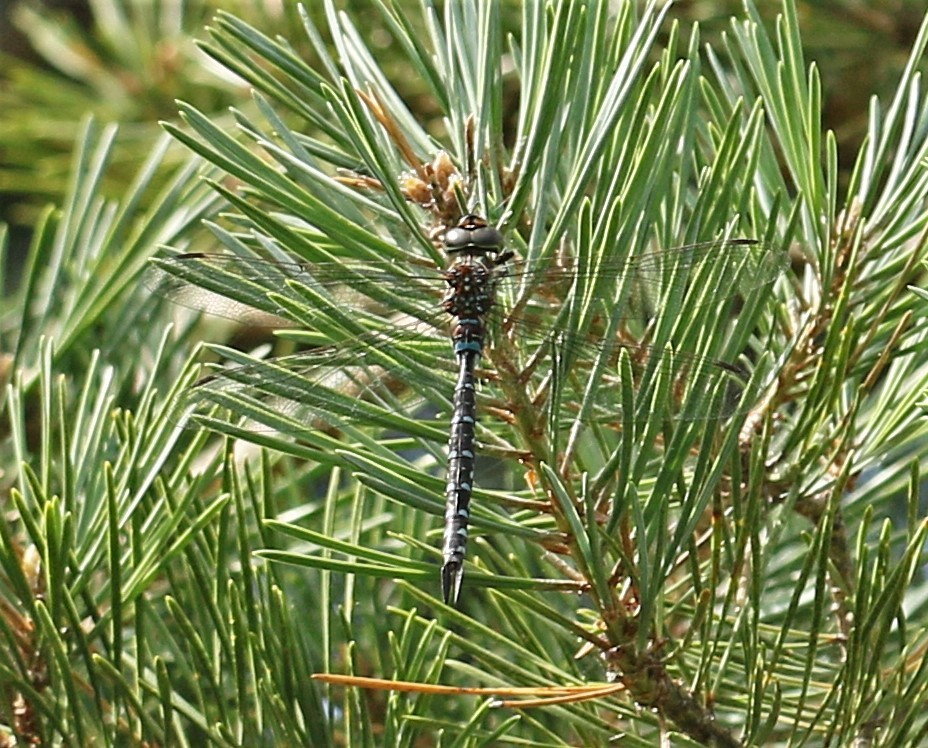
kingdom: Animalia
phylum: Arthropoda
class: Insecta
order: Odonata
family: Aeshnidae
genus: Aeshna
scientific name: Aeshna tuberculifera
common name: Aeschne à tubercules
